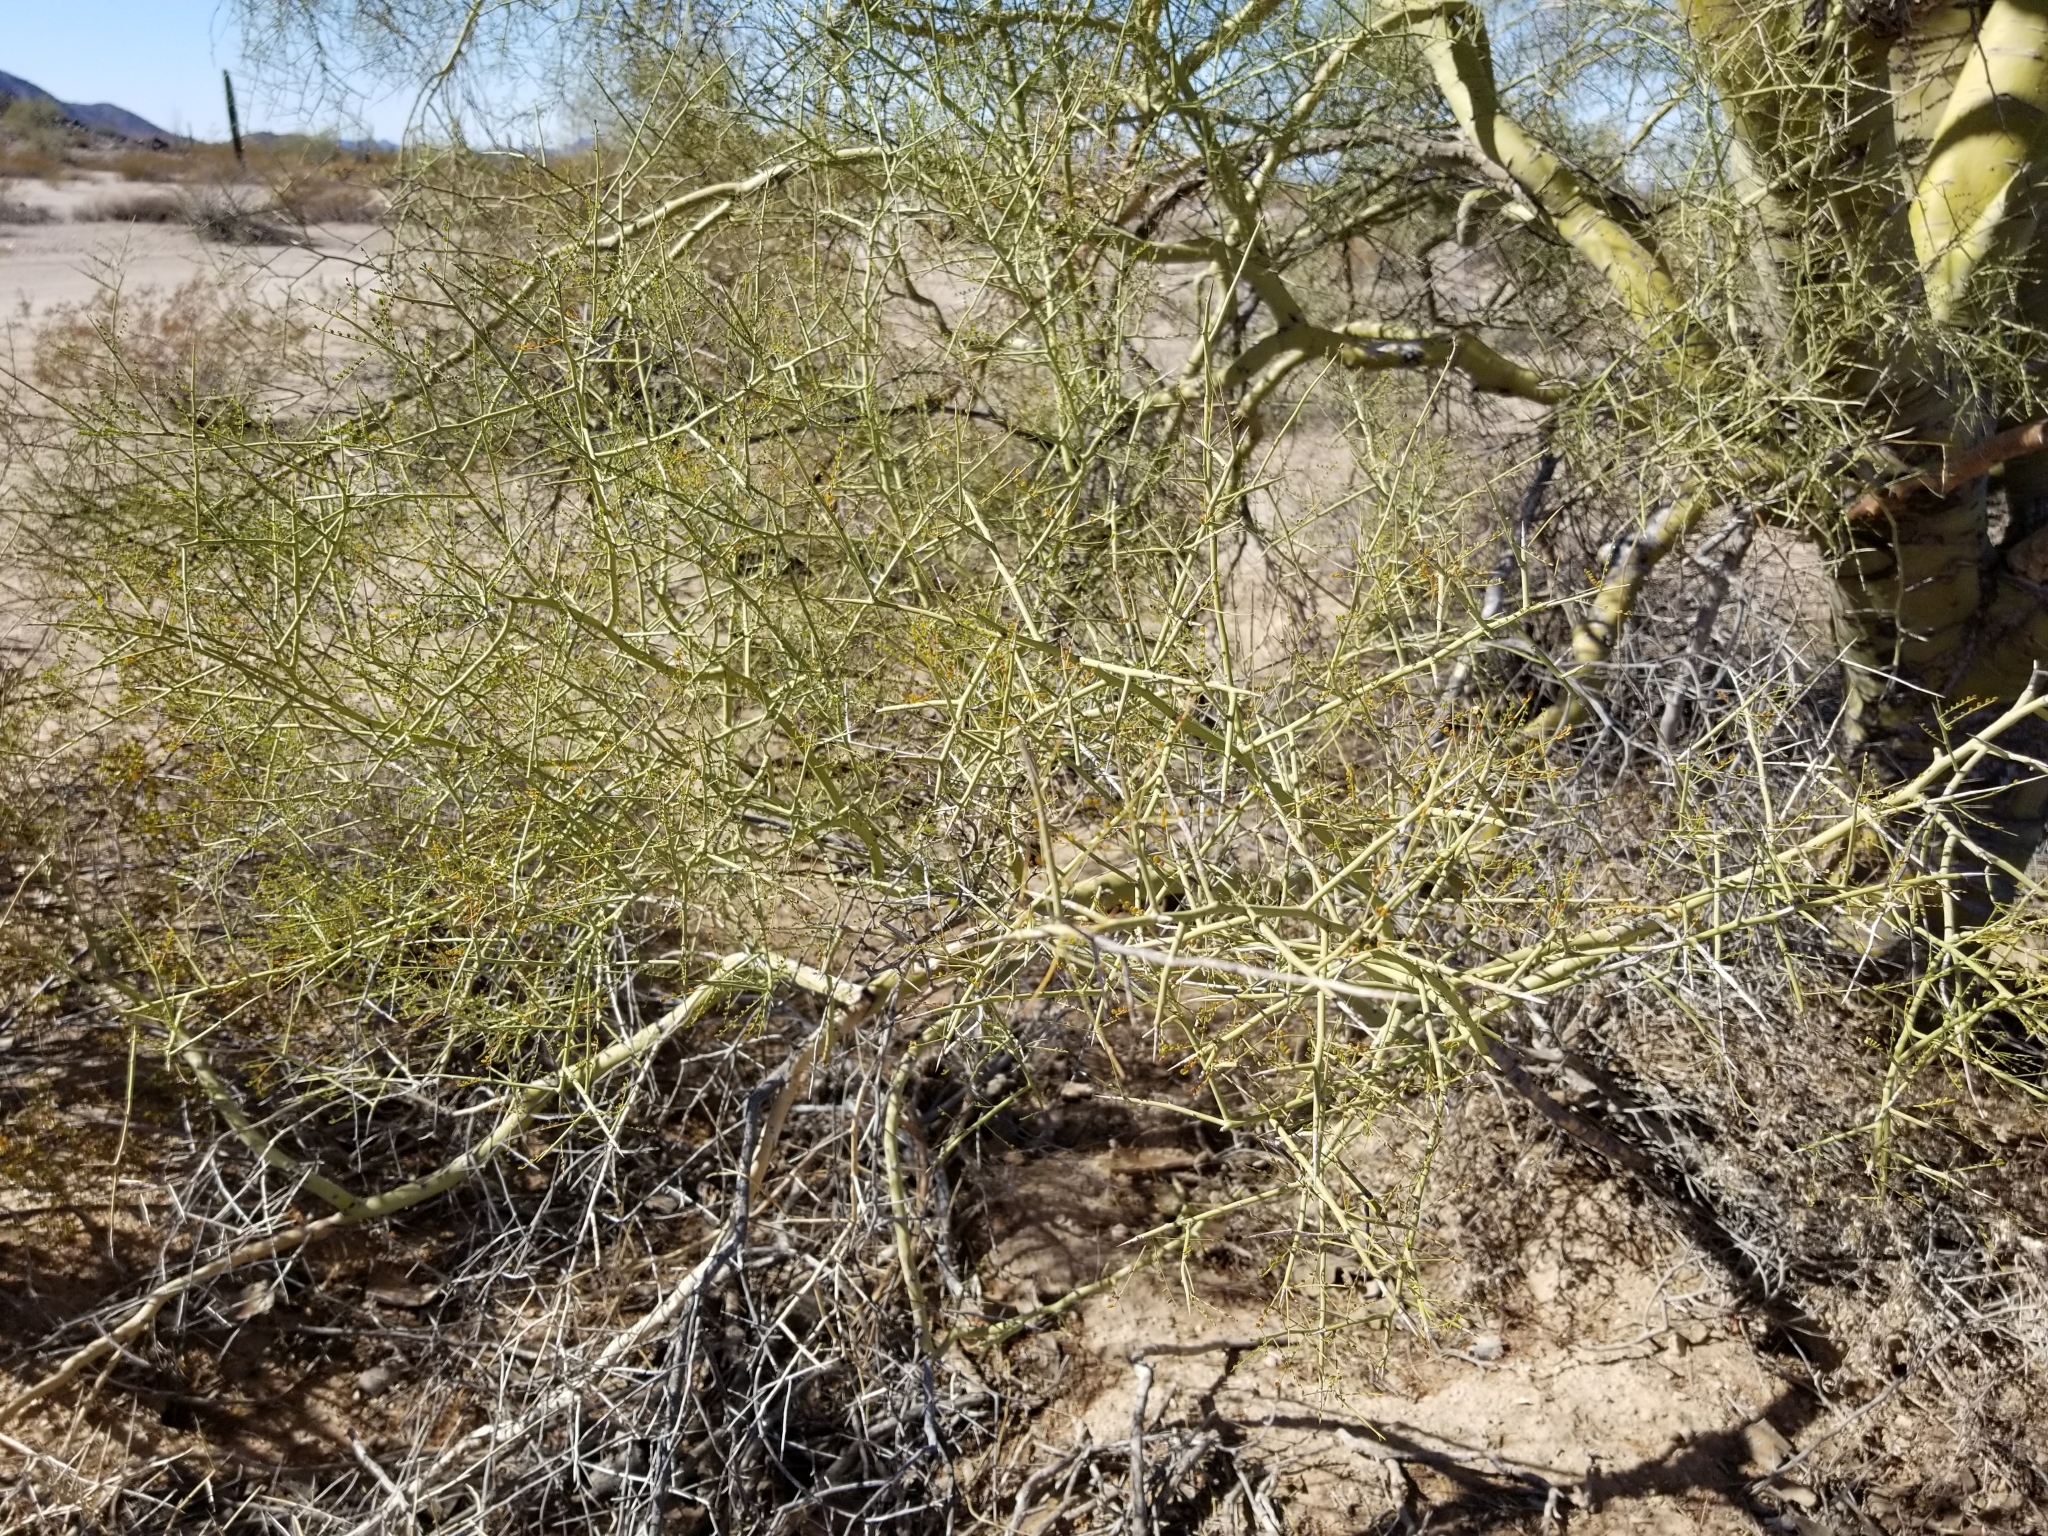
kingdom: Plantae
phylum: Tracheophyta
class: Magnoliopsida
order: Fabales
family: Fabaceae
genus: Parkinsonia
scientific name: Parkinsonia microphylla
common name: Yellow paloverde
